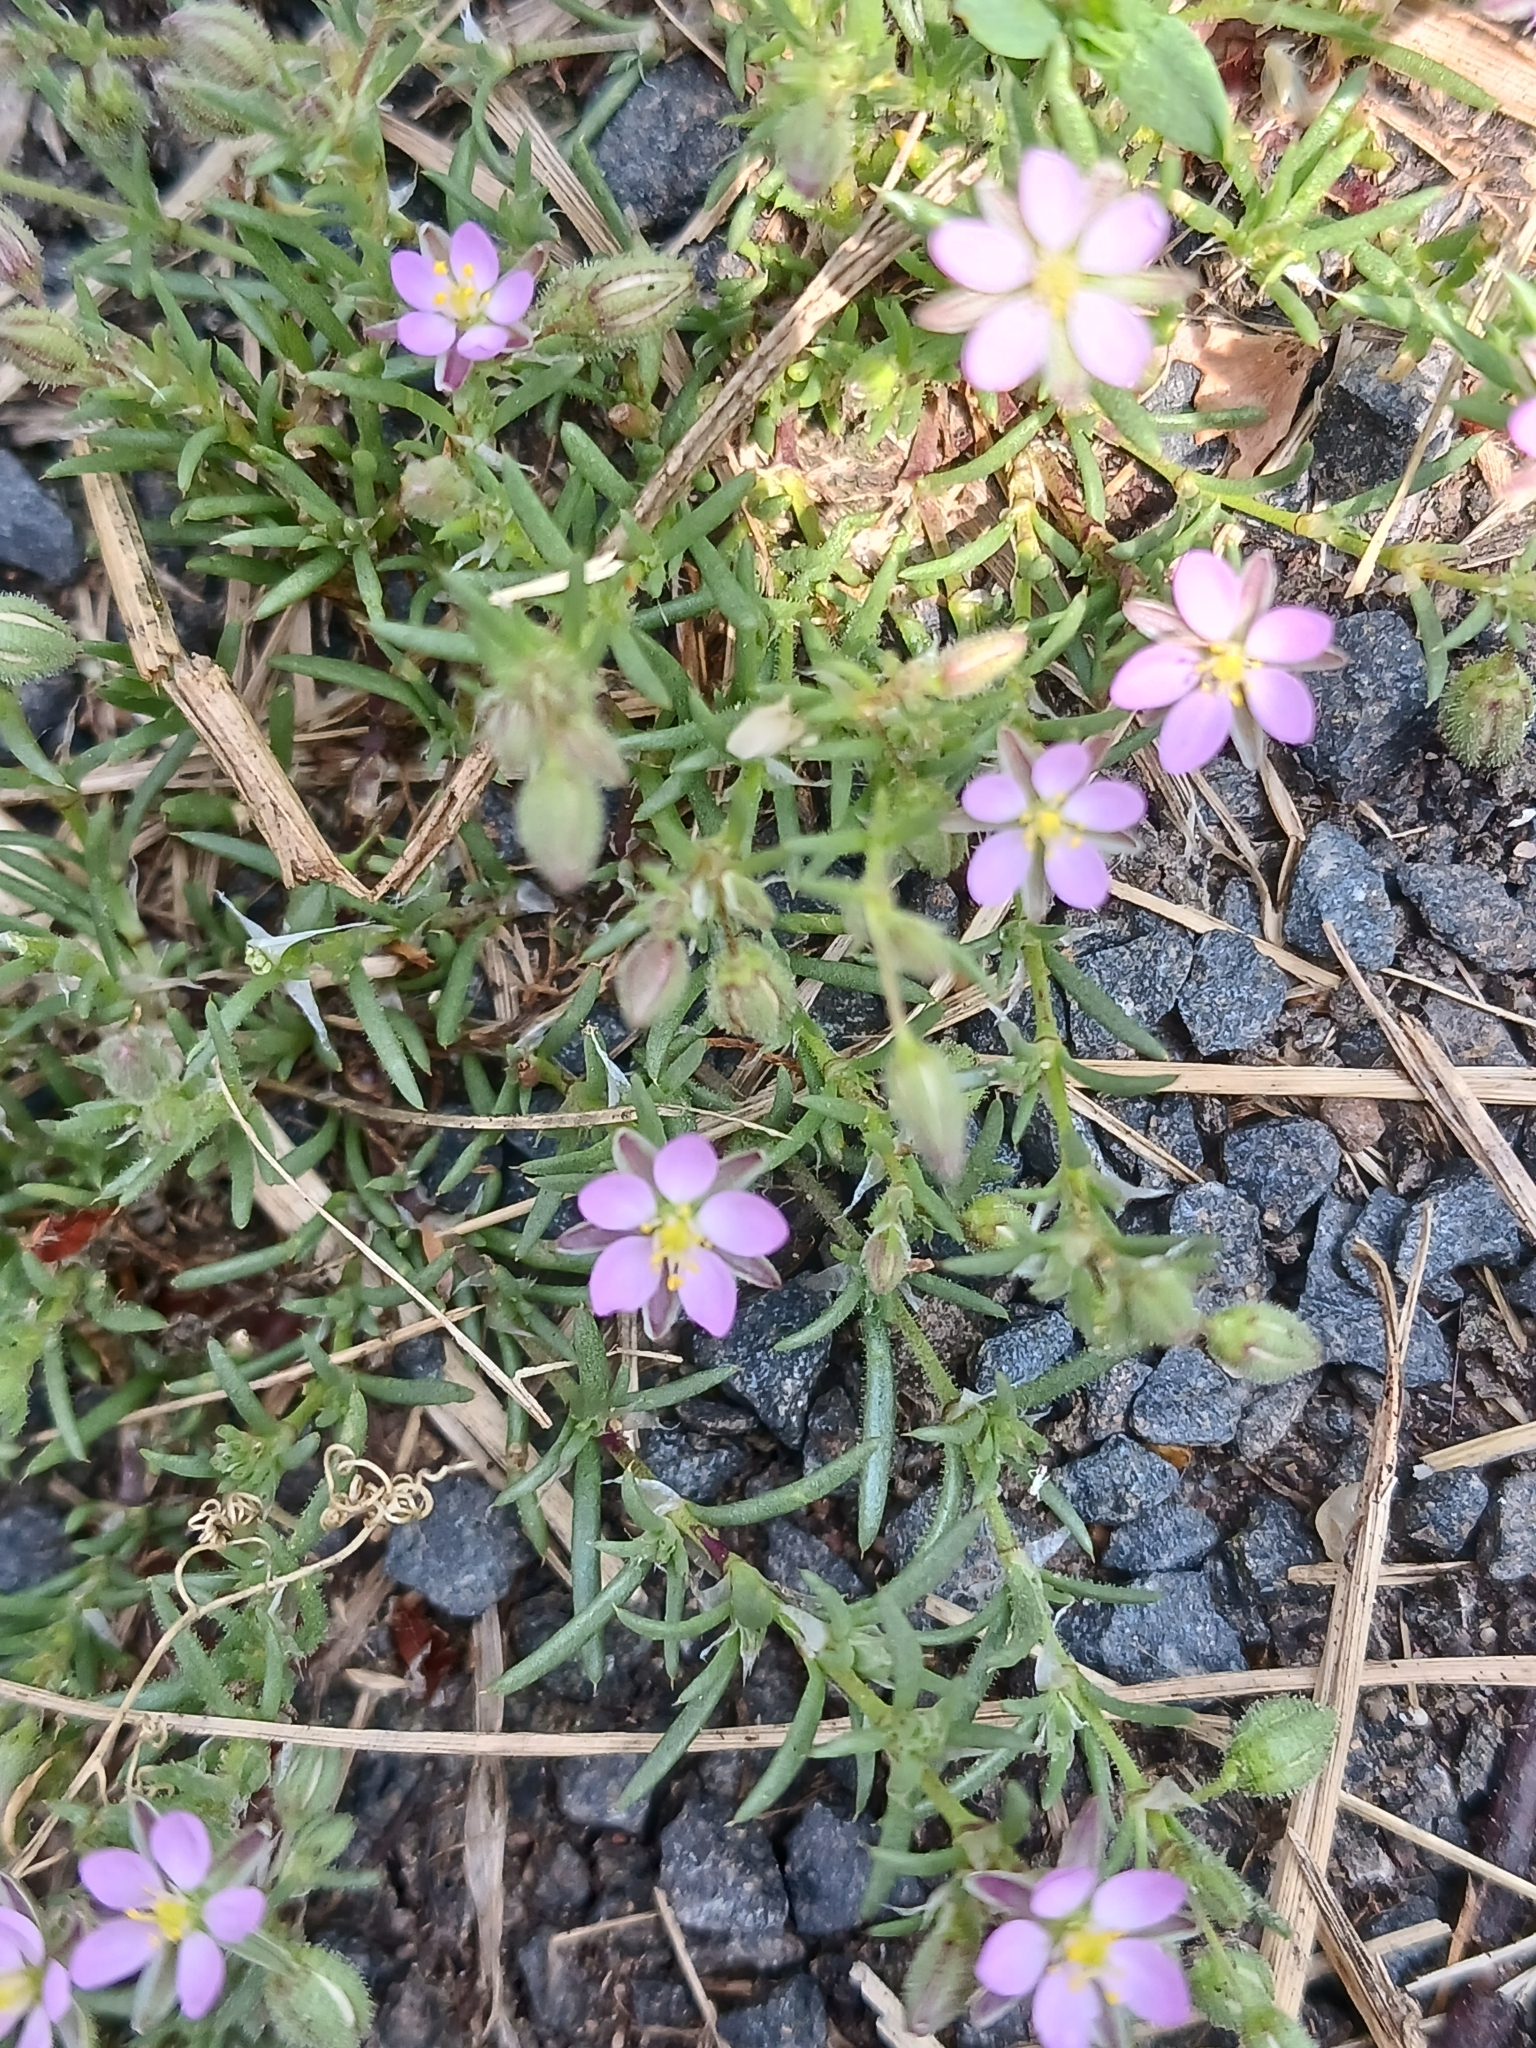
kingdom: Plantae
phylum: Tracheophyta
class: Magnoliopsida
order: Caryophyllales
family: Caryophyllaceae
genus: Spergularia
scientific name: Spergularia rubra
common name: Red sand-spurrey
